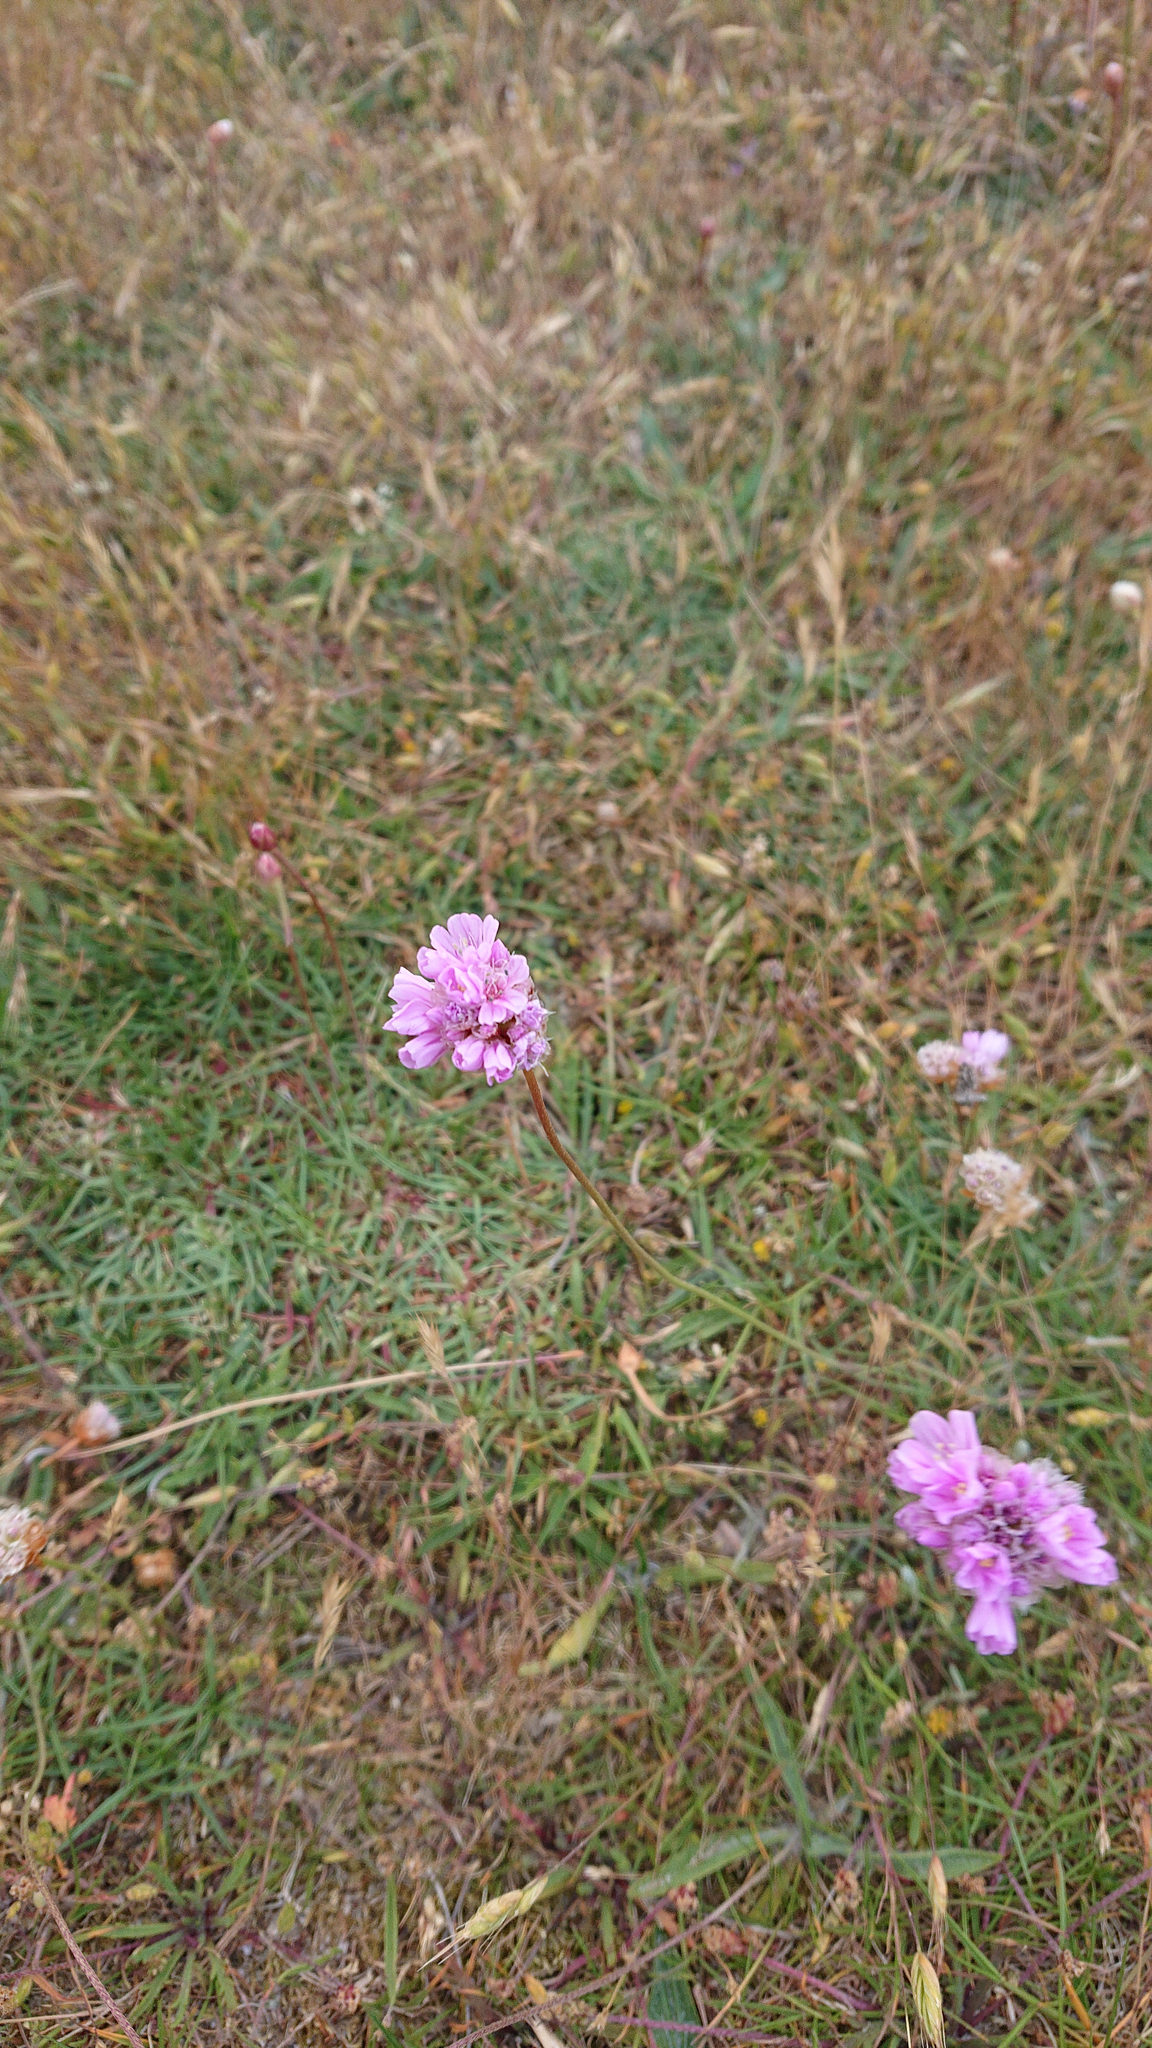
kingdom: Plantae
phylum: Tracheophyta
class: Magnoliopsida
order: Caryophyllales
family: Plumbaginaceae
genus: Armeria
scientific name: Armeria maritima
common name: Thrift
